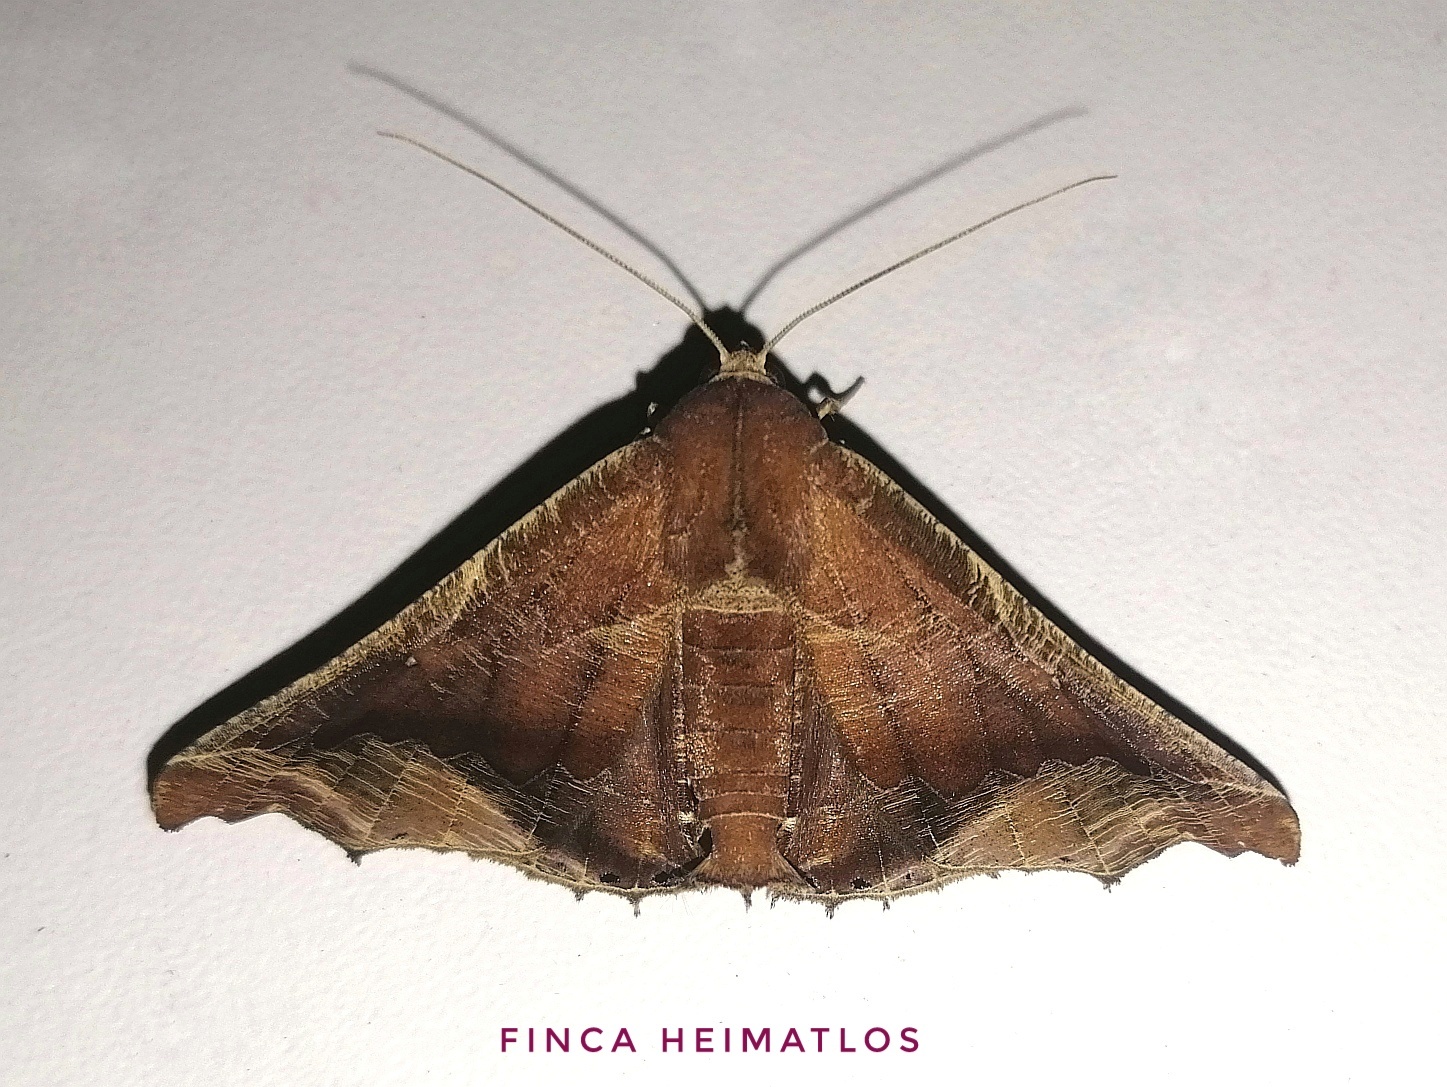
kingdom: Animalia
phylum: Arthropoda
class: Insecta
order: Lepidoptera
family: Geometridae
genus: Pero
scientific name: Pero boa
